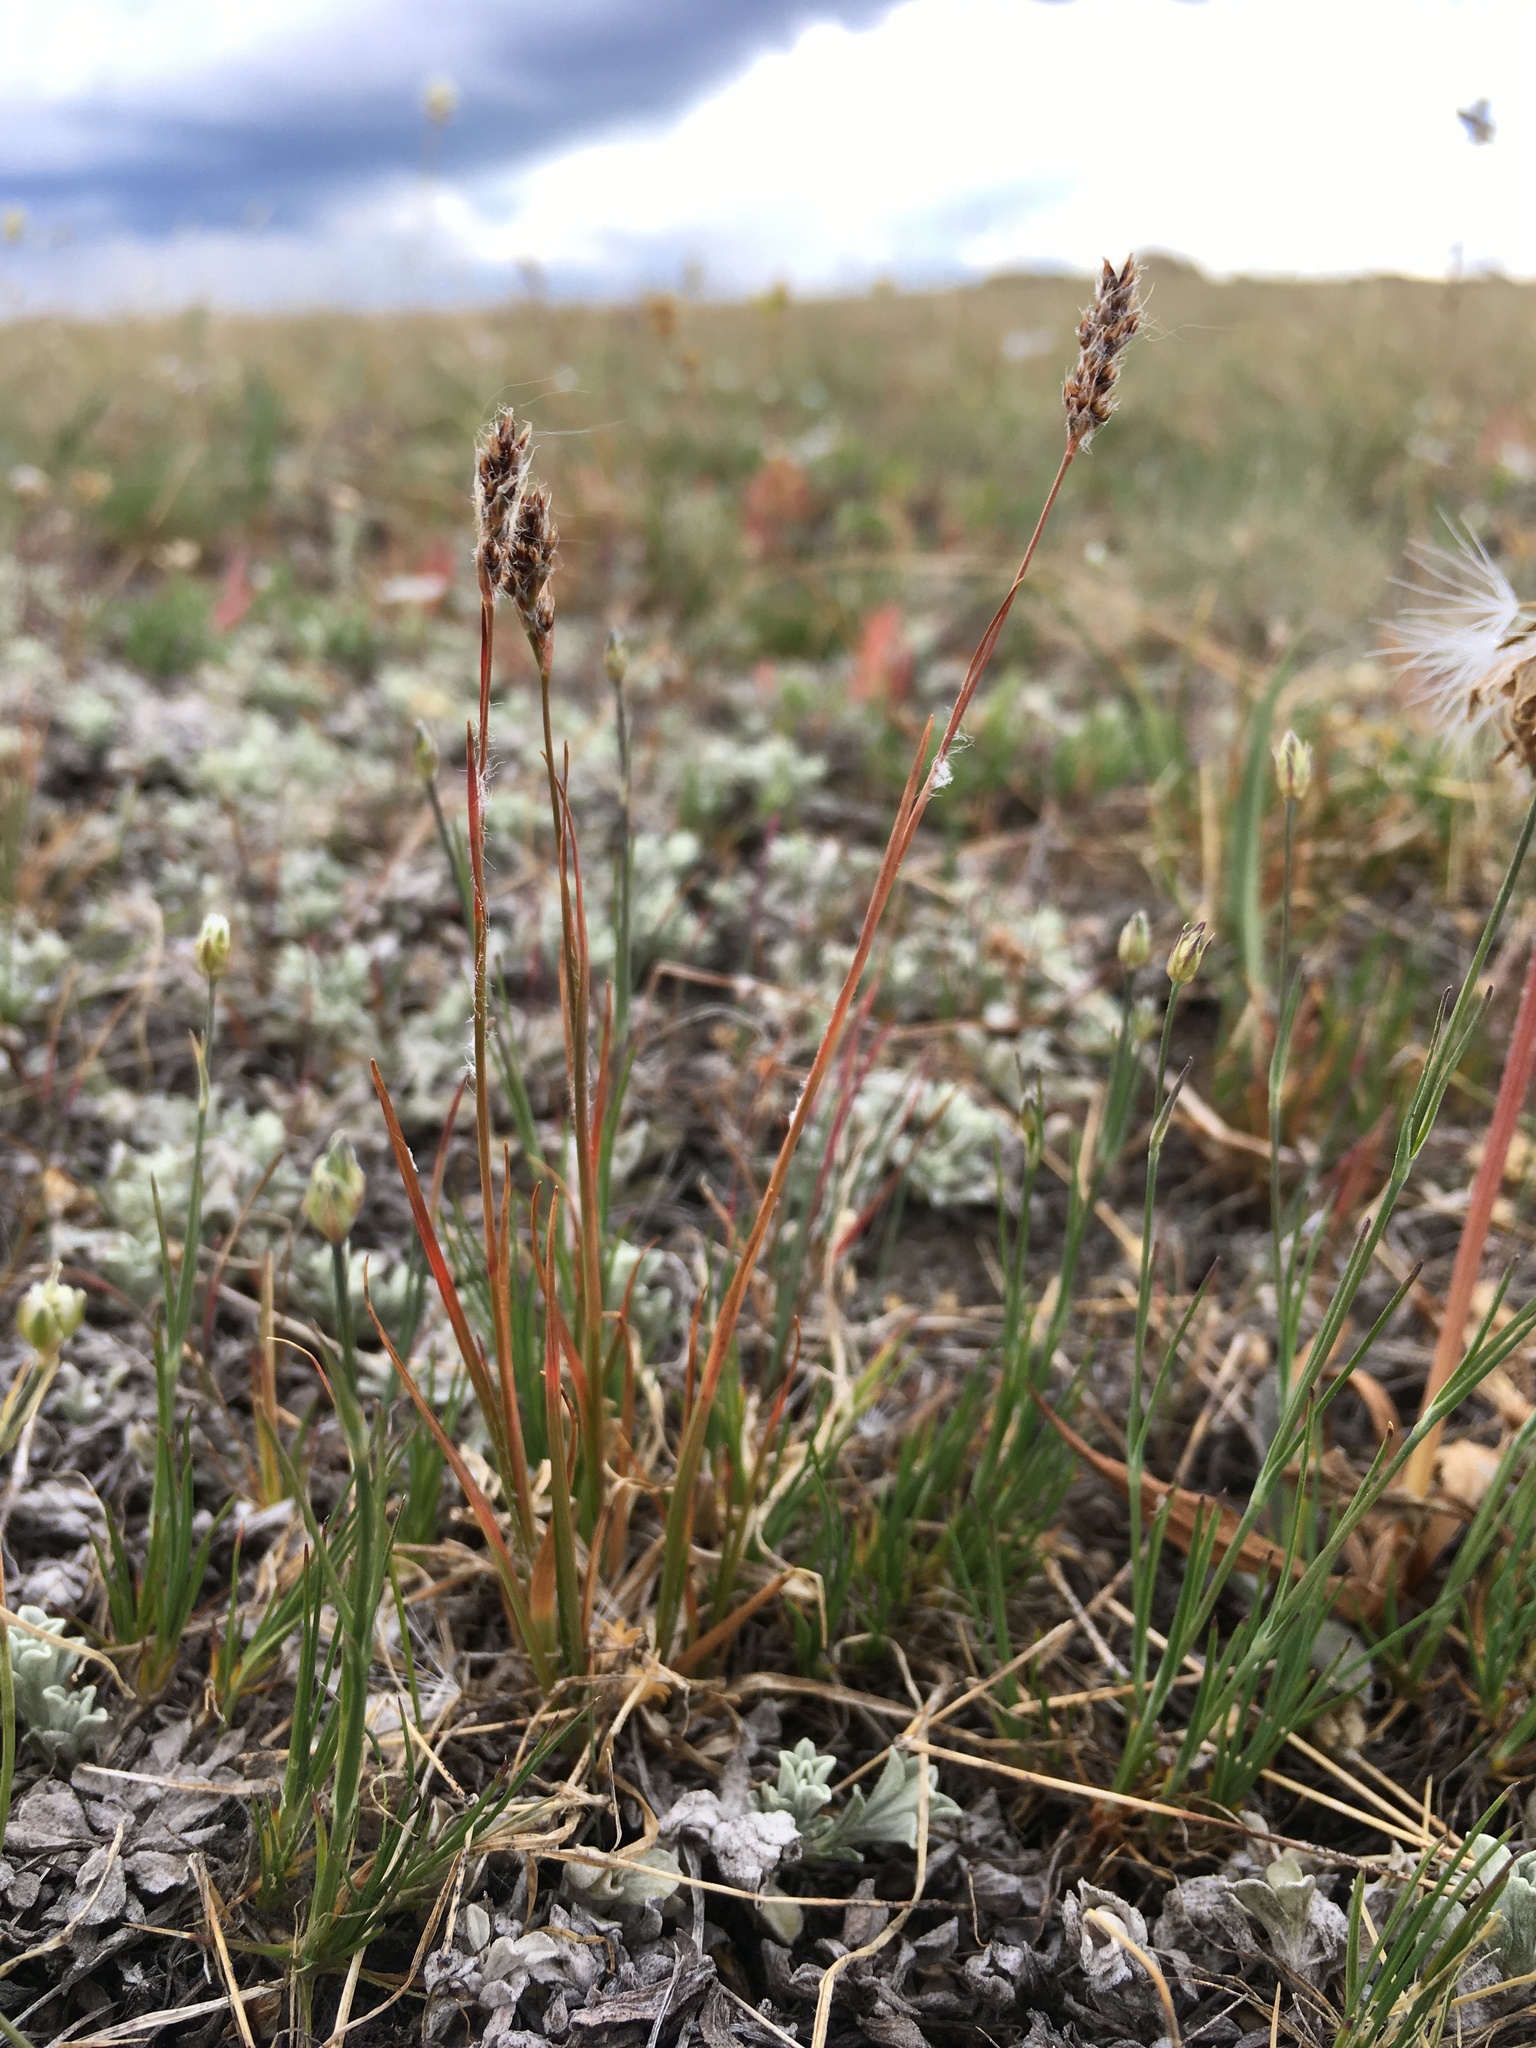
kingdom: Plantae
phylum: Tracheophyta
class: Liliopsida
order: Poales
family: Juncaceae
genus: Luzula
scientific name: Luzula spicata
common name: Spiked wood-rush
